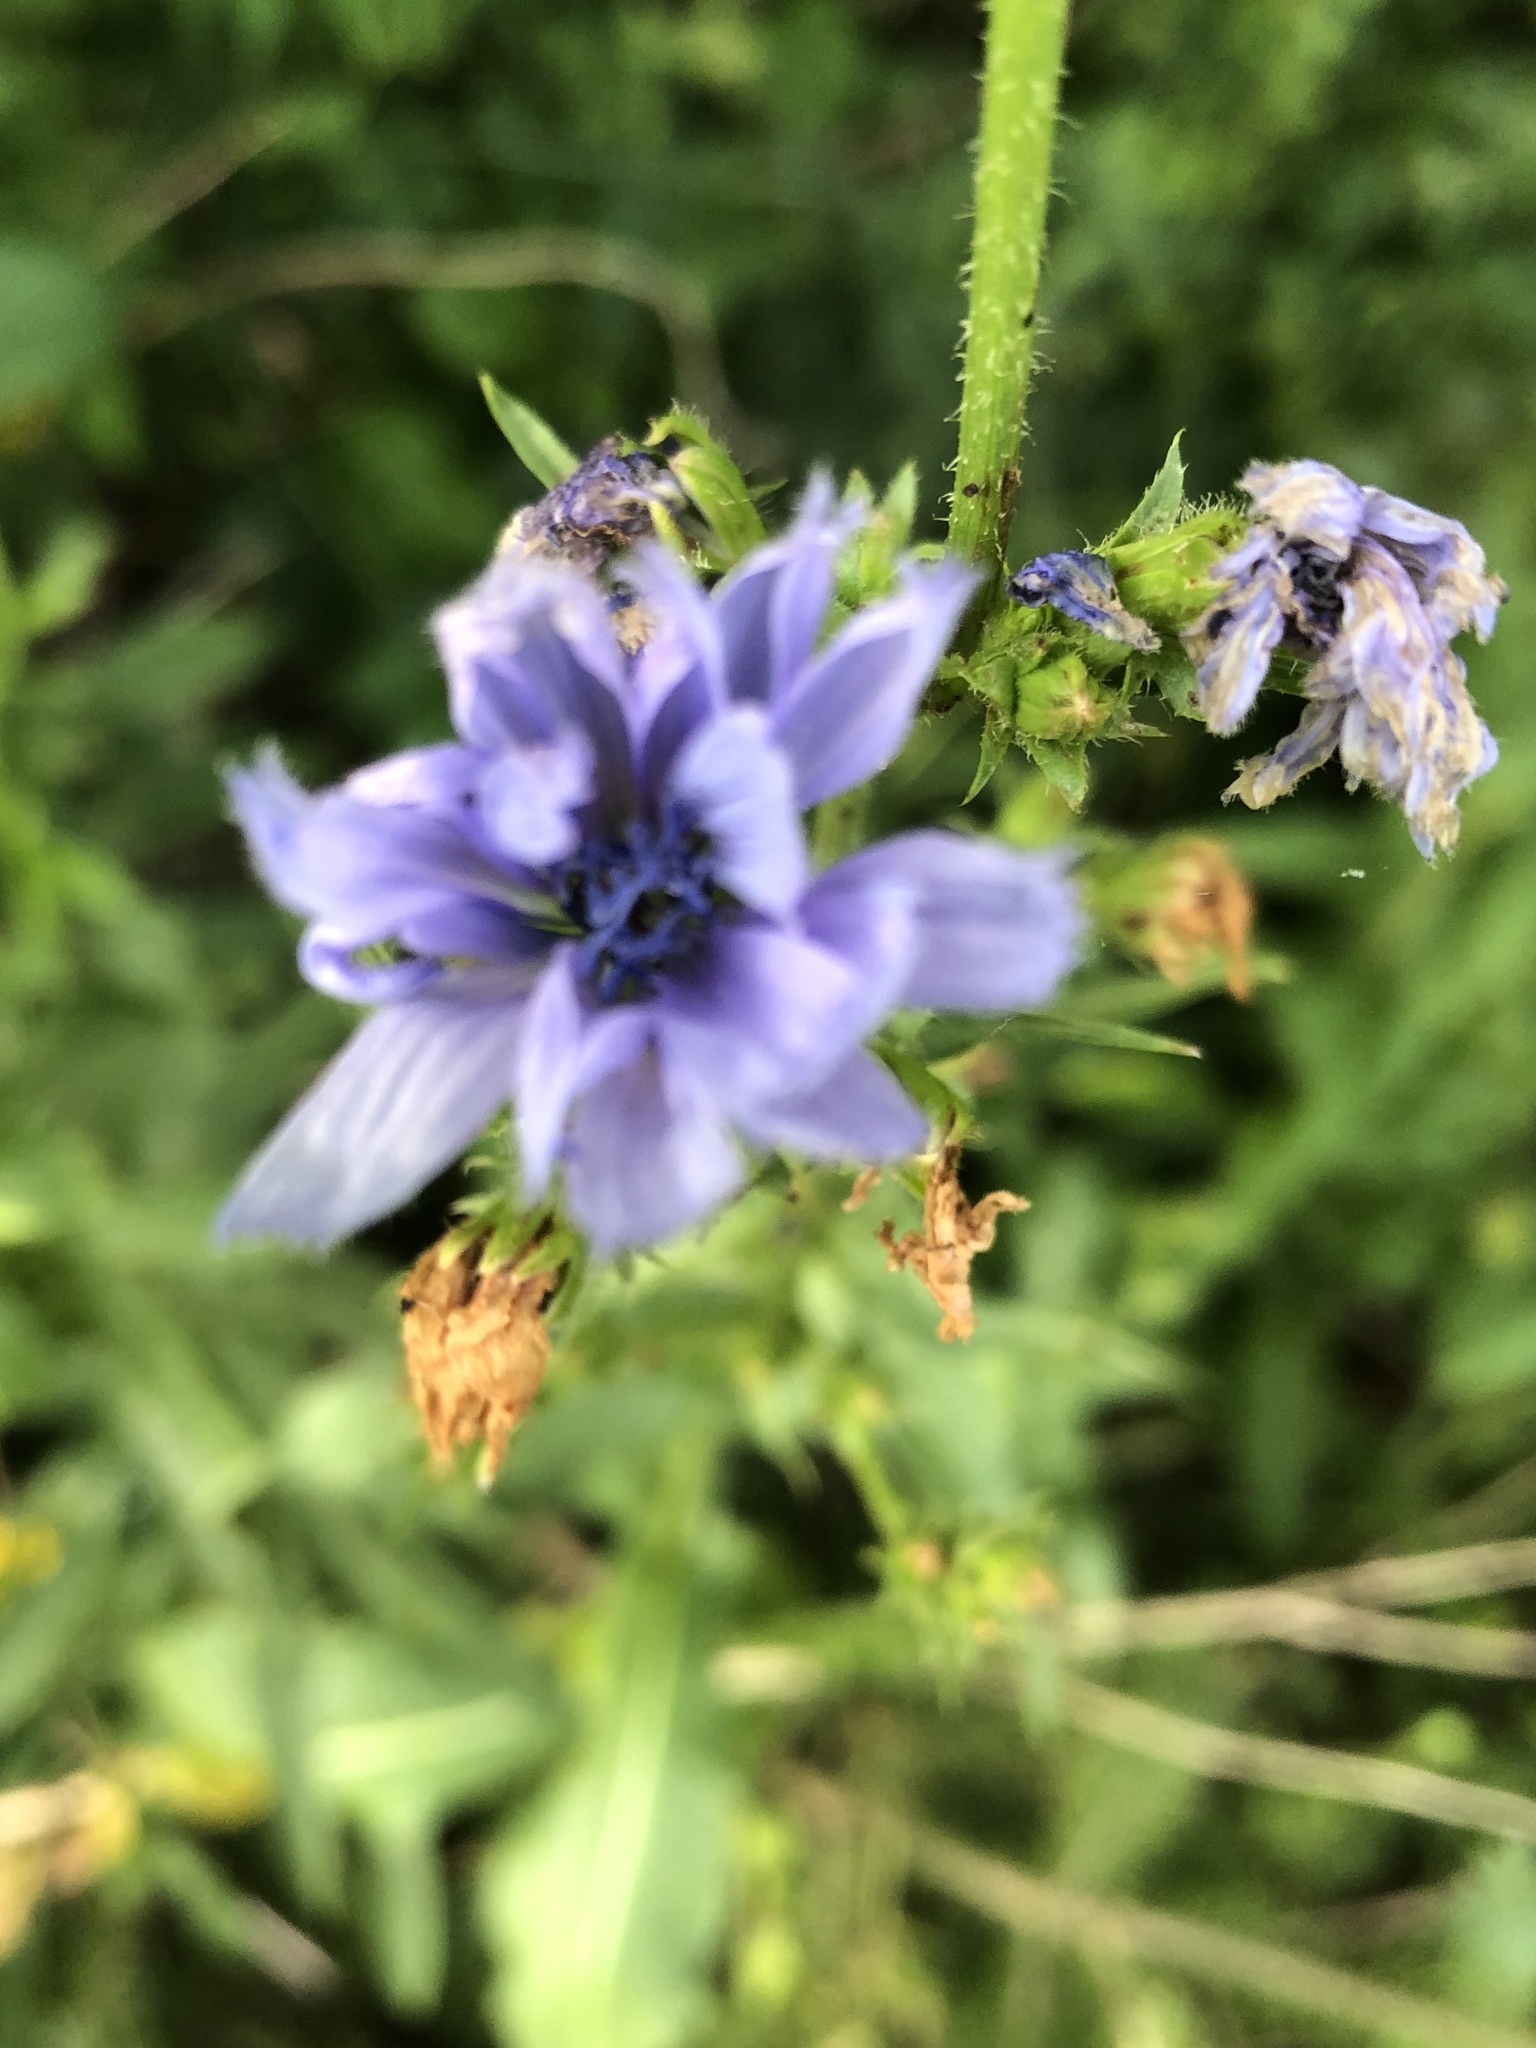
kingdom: Plantae
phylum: Tracheophyta
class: Magnoliopsida
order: Asterales
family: Asteraceae
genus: Cichorium
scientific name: Cichorium intybus
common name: Chicory
